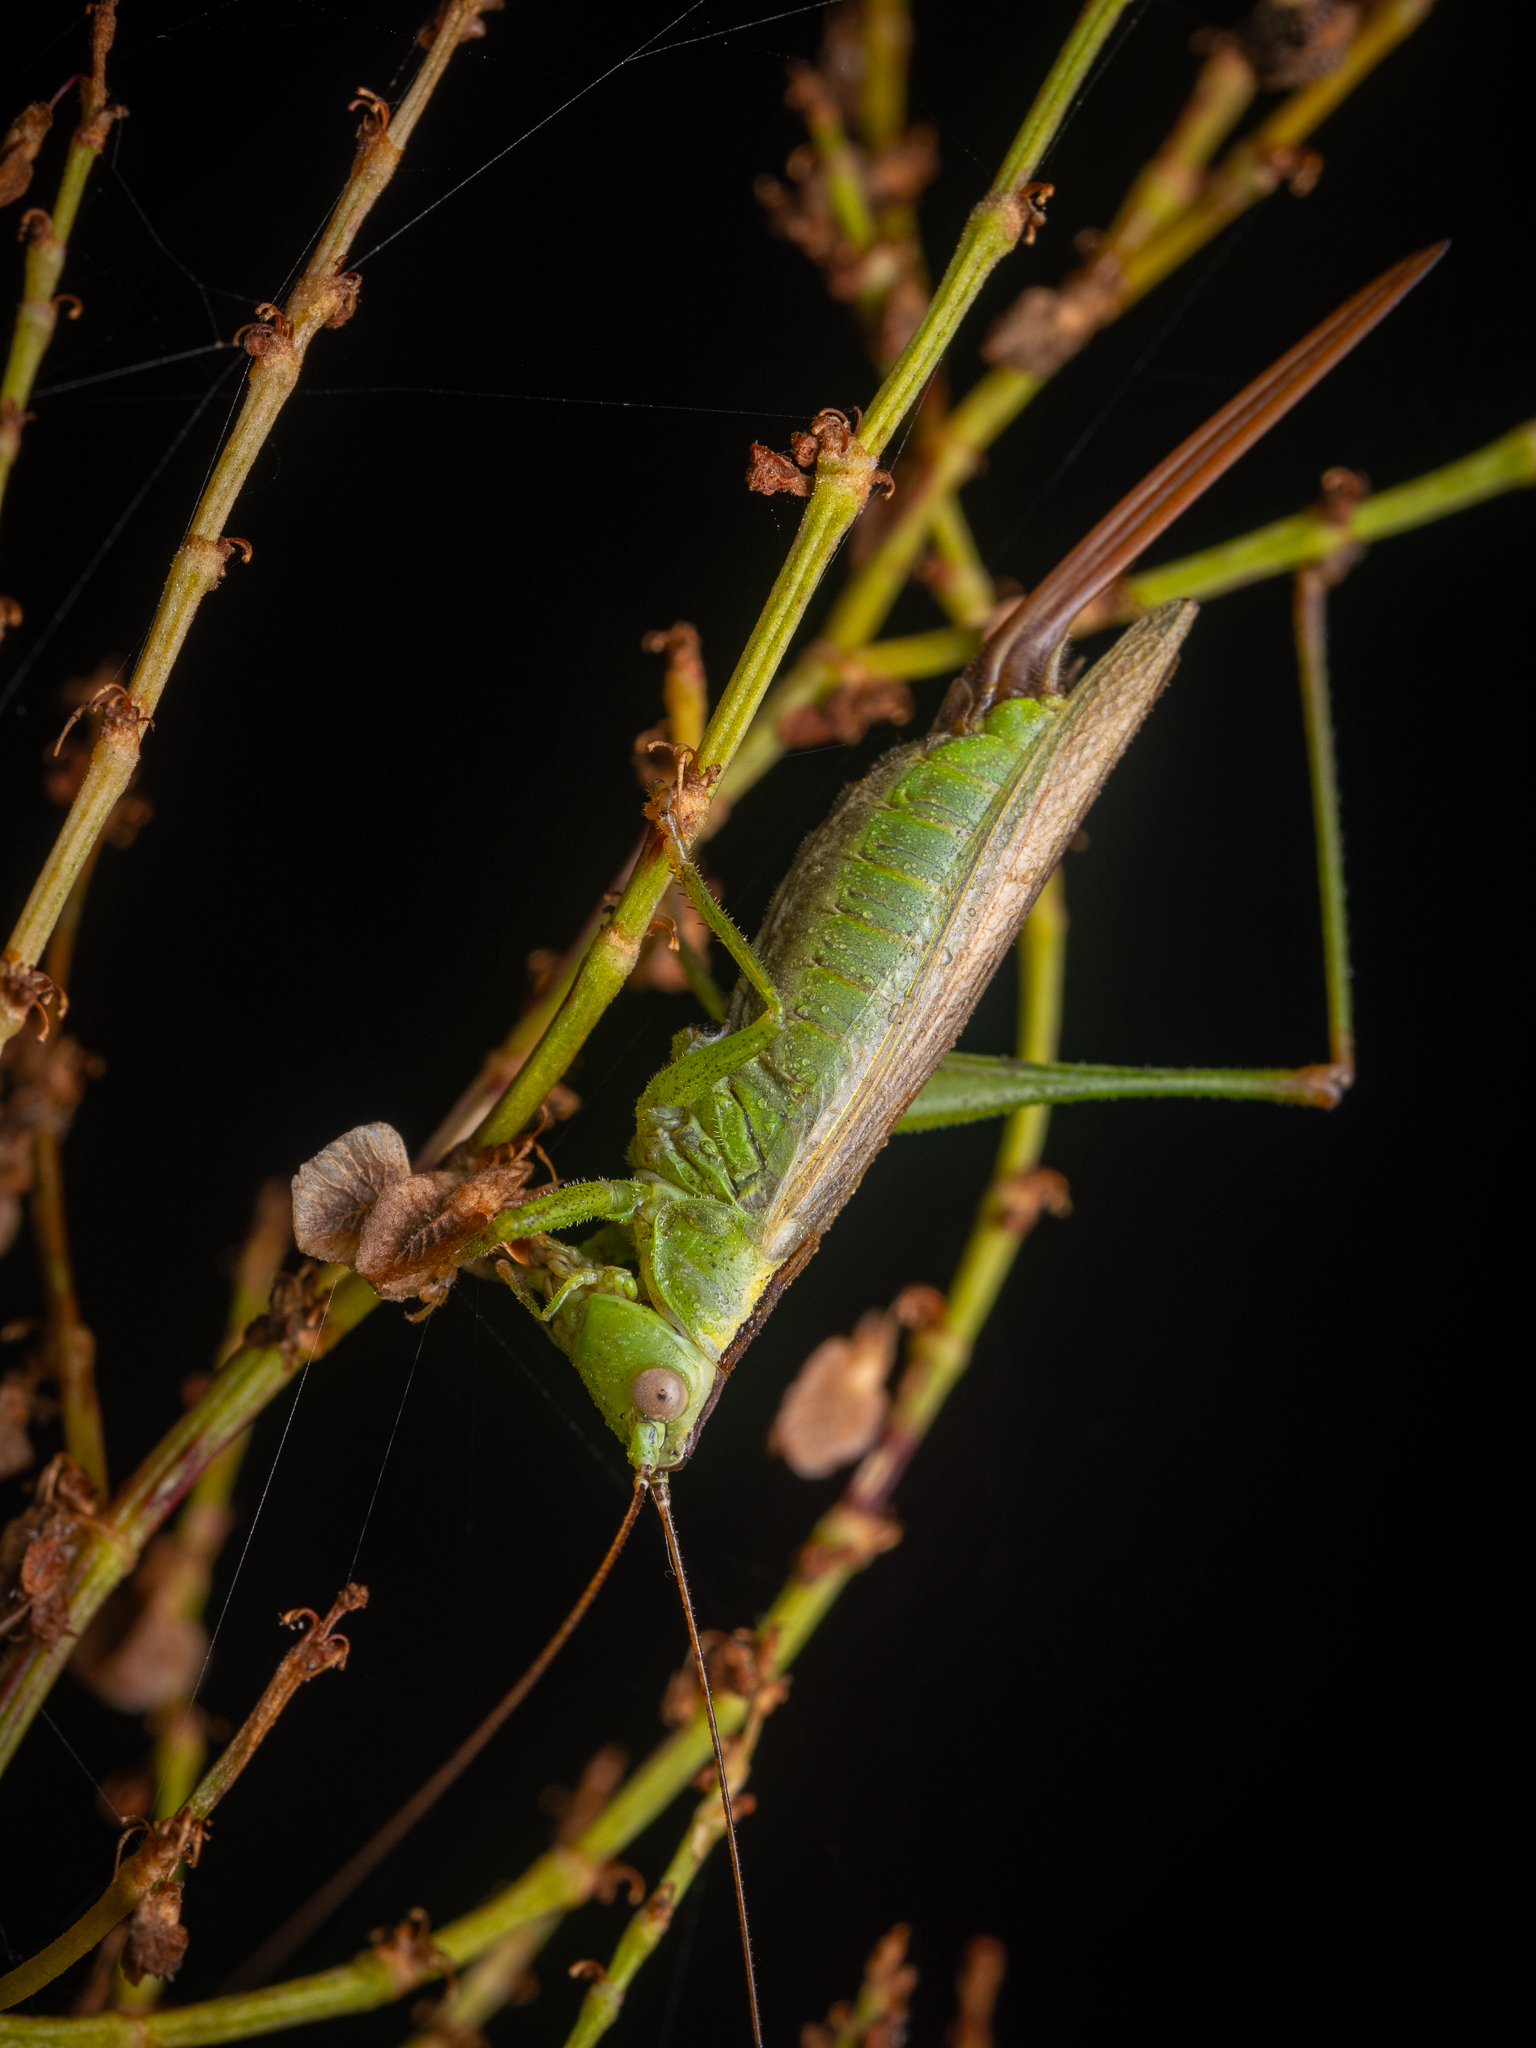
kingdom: Animalia
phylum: Arthropoda
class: Insecta
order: Orthoptera
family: Tettigoniidae
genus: Conocephalus
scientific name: Conocephalus fuscus
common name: Long-winged conehead
